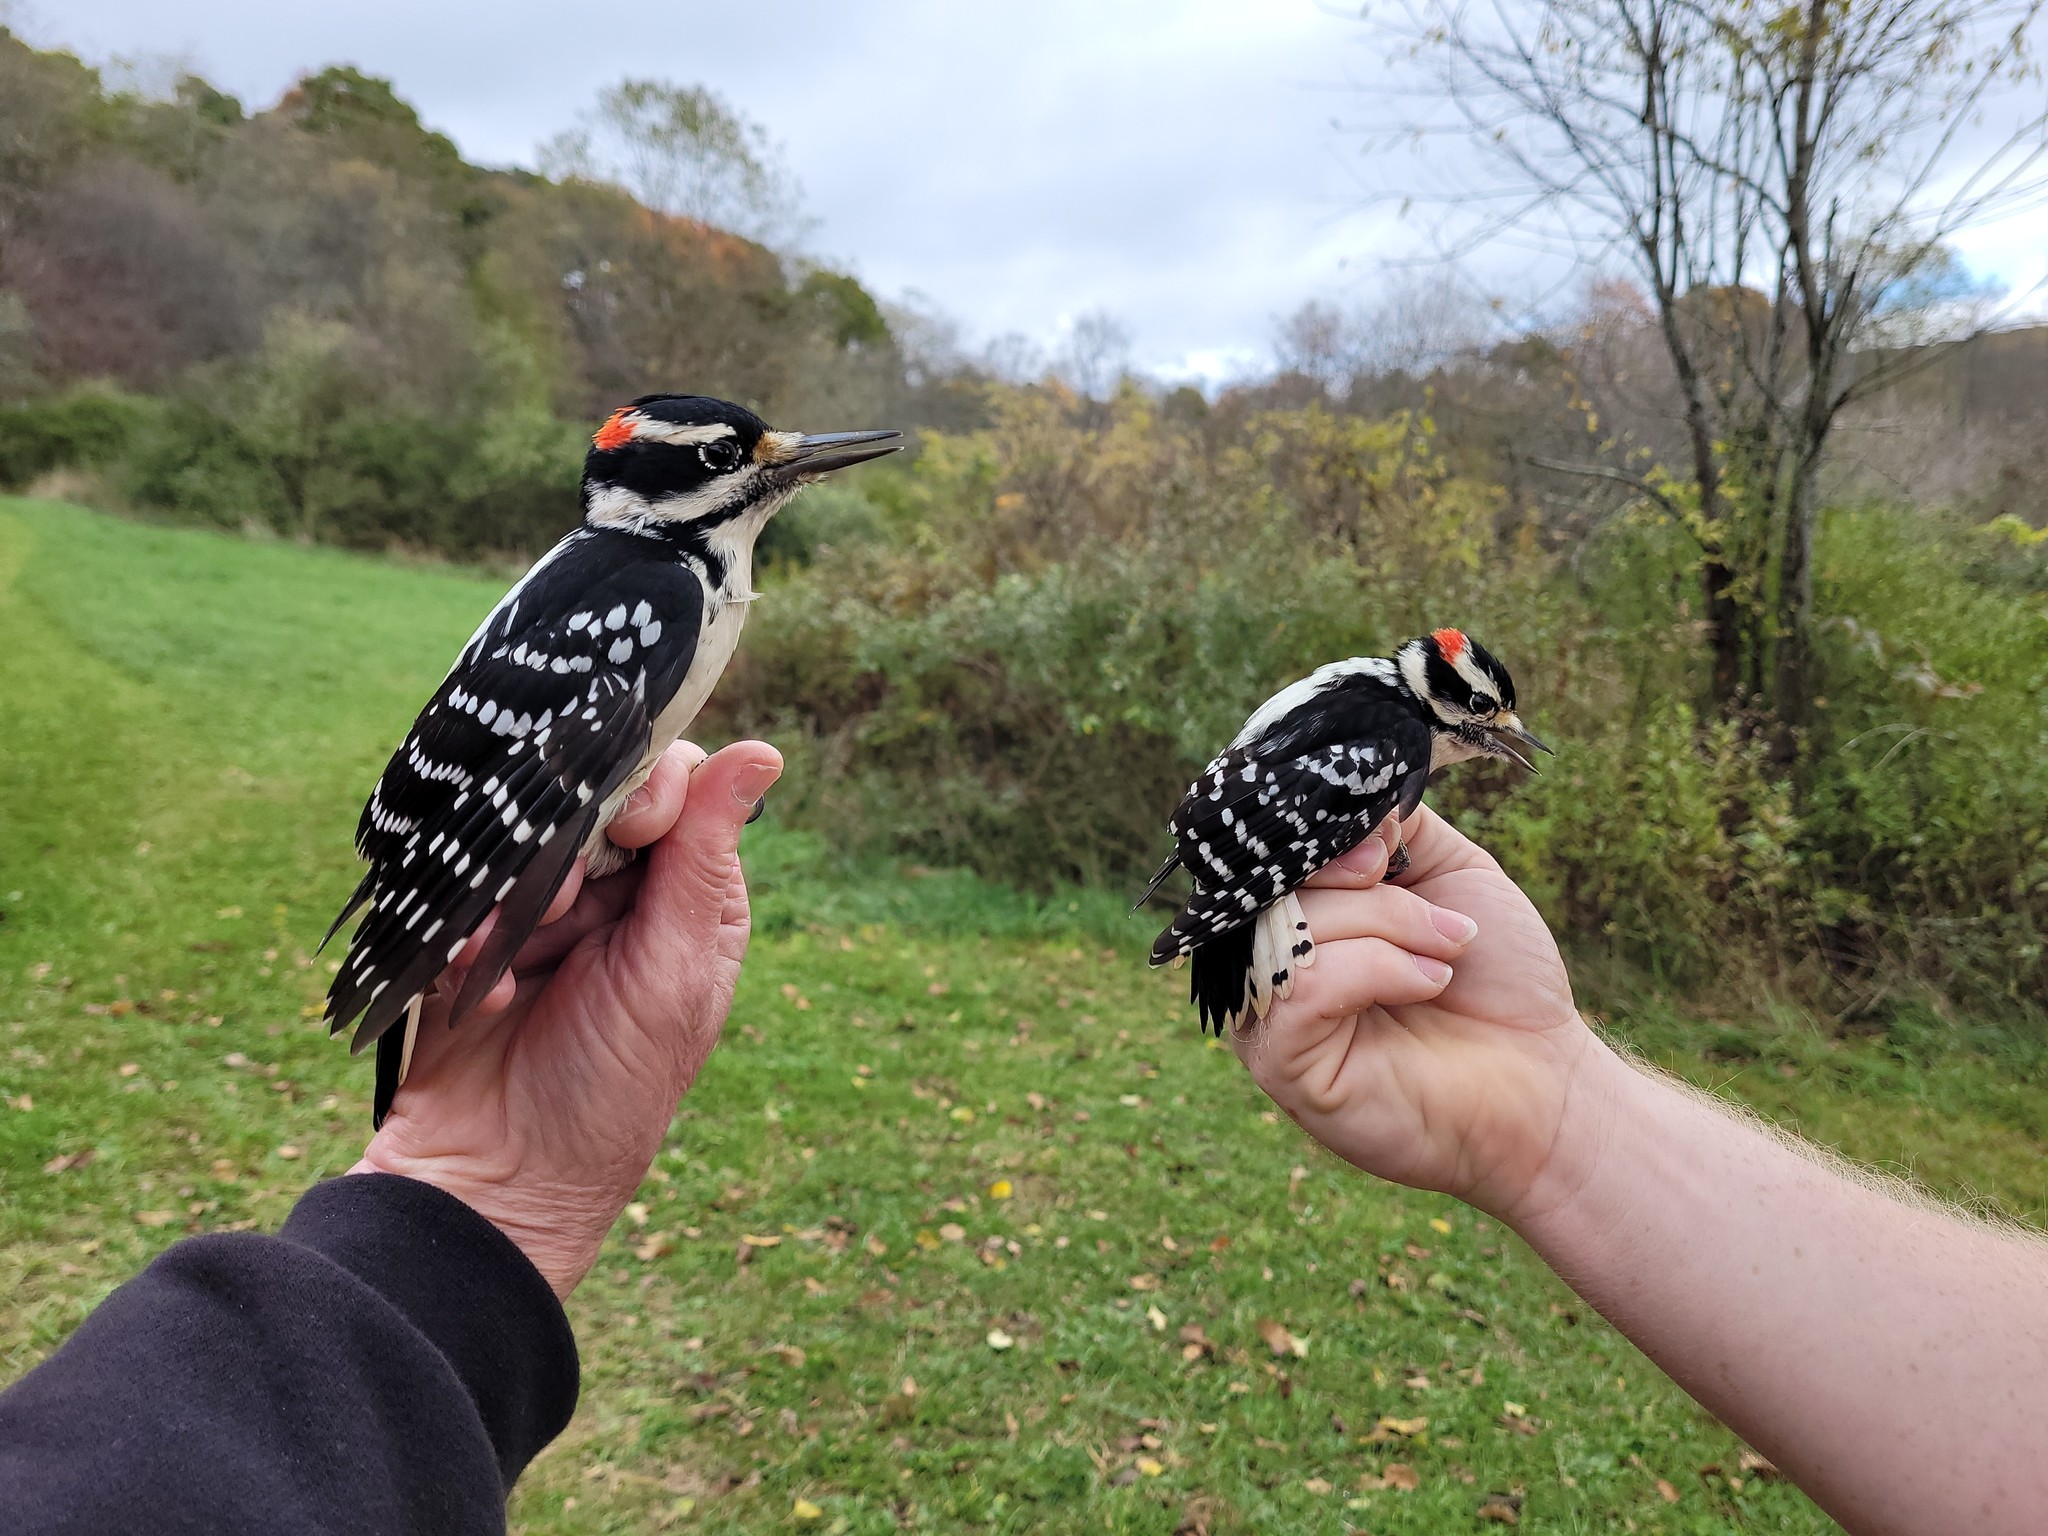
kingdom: Animalia
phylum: Chordata
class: Aves
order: Piciformes
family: Picidae
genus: Dryobates
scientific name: Dryobates pubescens
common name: Downy woodpecker
